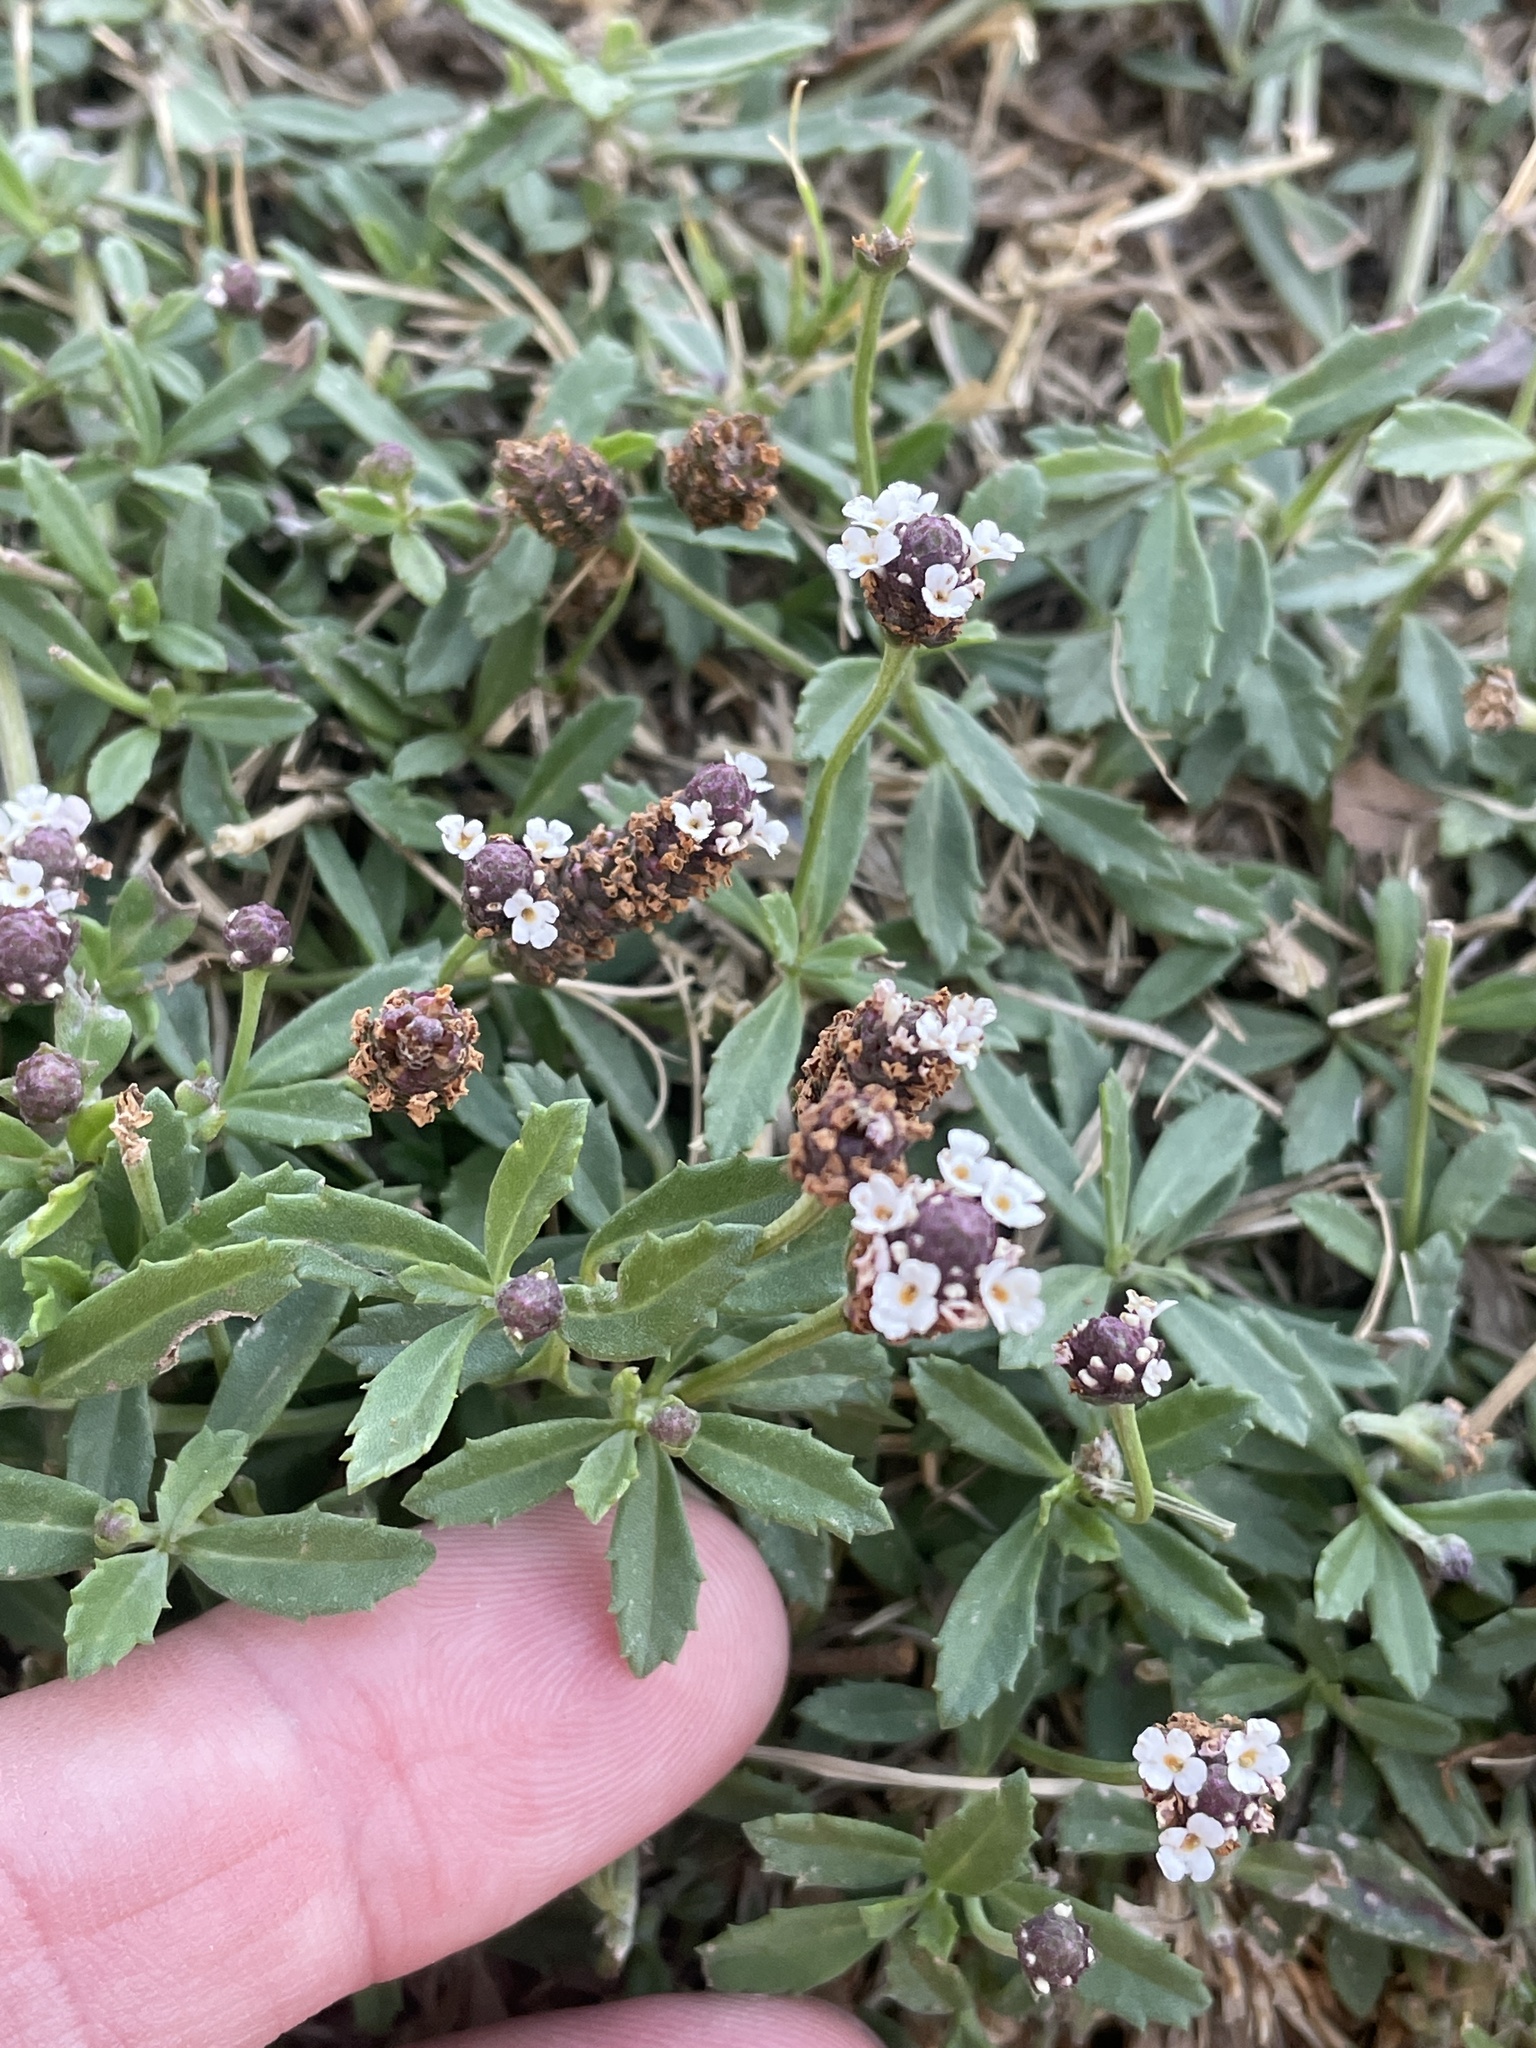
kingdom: Plantae
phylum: Tracheophyta
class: Magnoliopsida
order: Lamiales
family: Verbenaceae
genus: Phyla
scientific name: Phyla nodiflora
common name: Frogfruit
